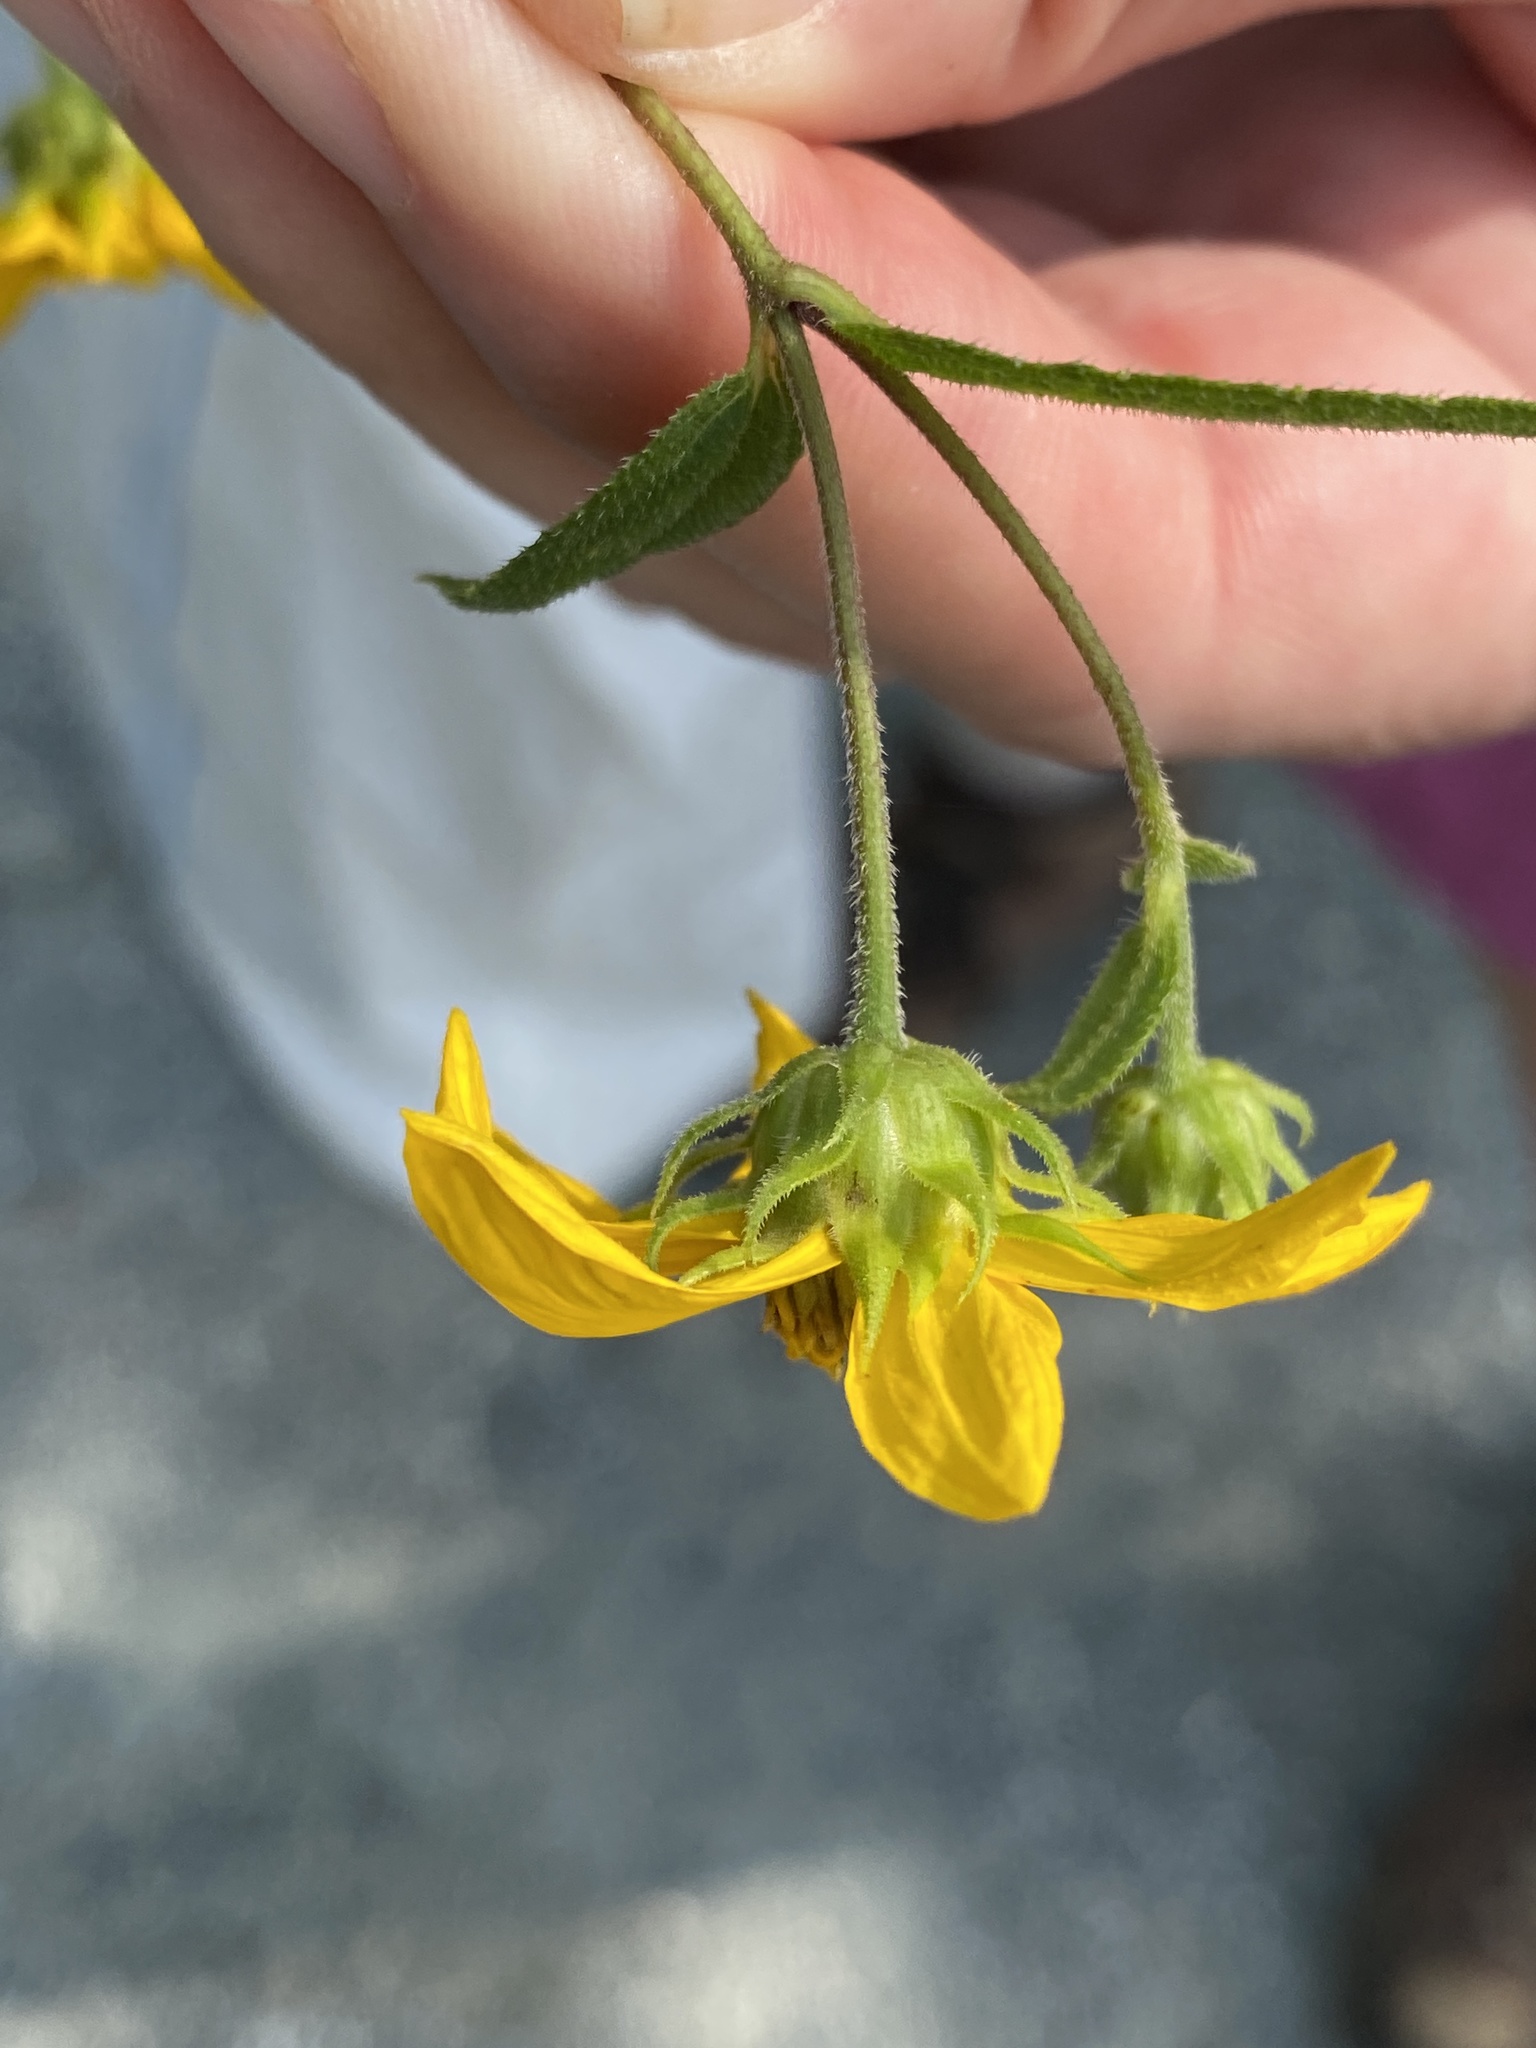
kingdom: Plantae
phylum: Tracheophyta
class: Magnoliopsida
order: Asterales
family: Asteraceae
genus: Helianthus
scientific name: Helianthus divaricatus
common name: Divergent sunflower
